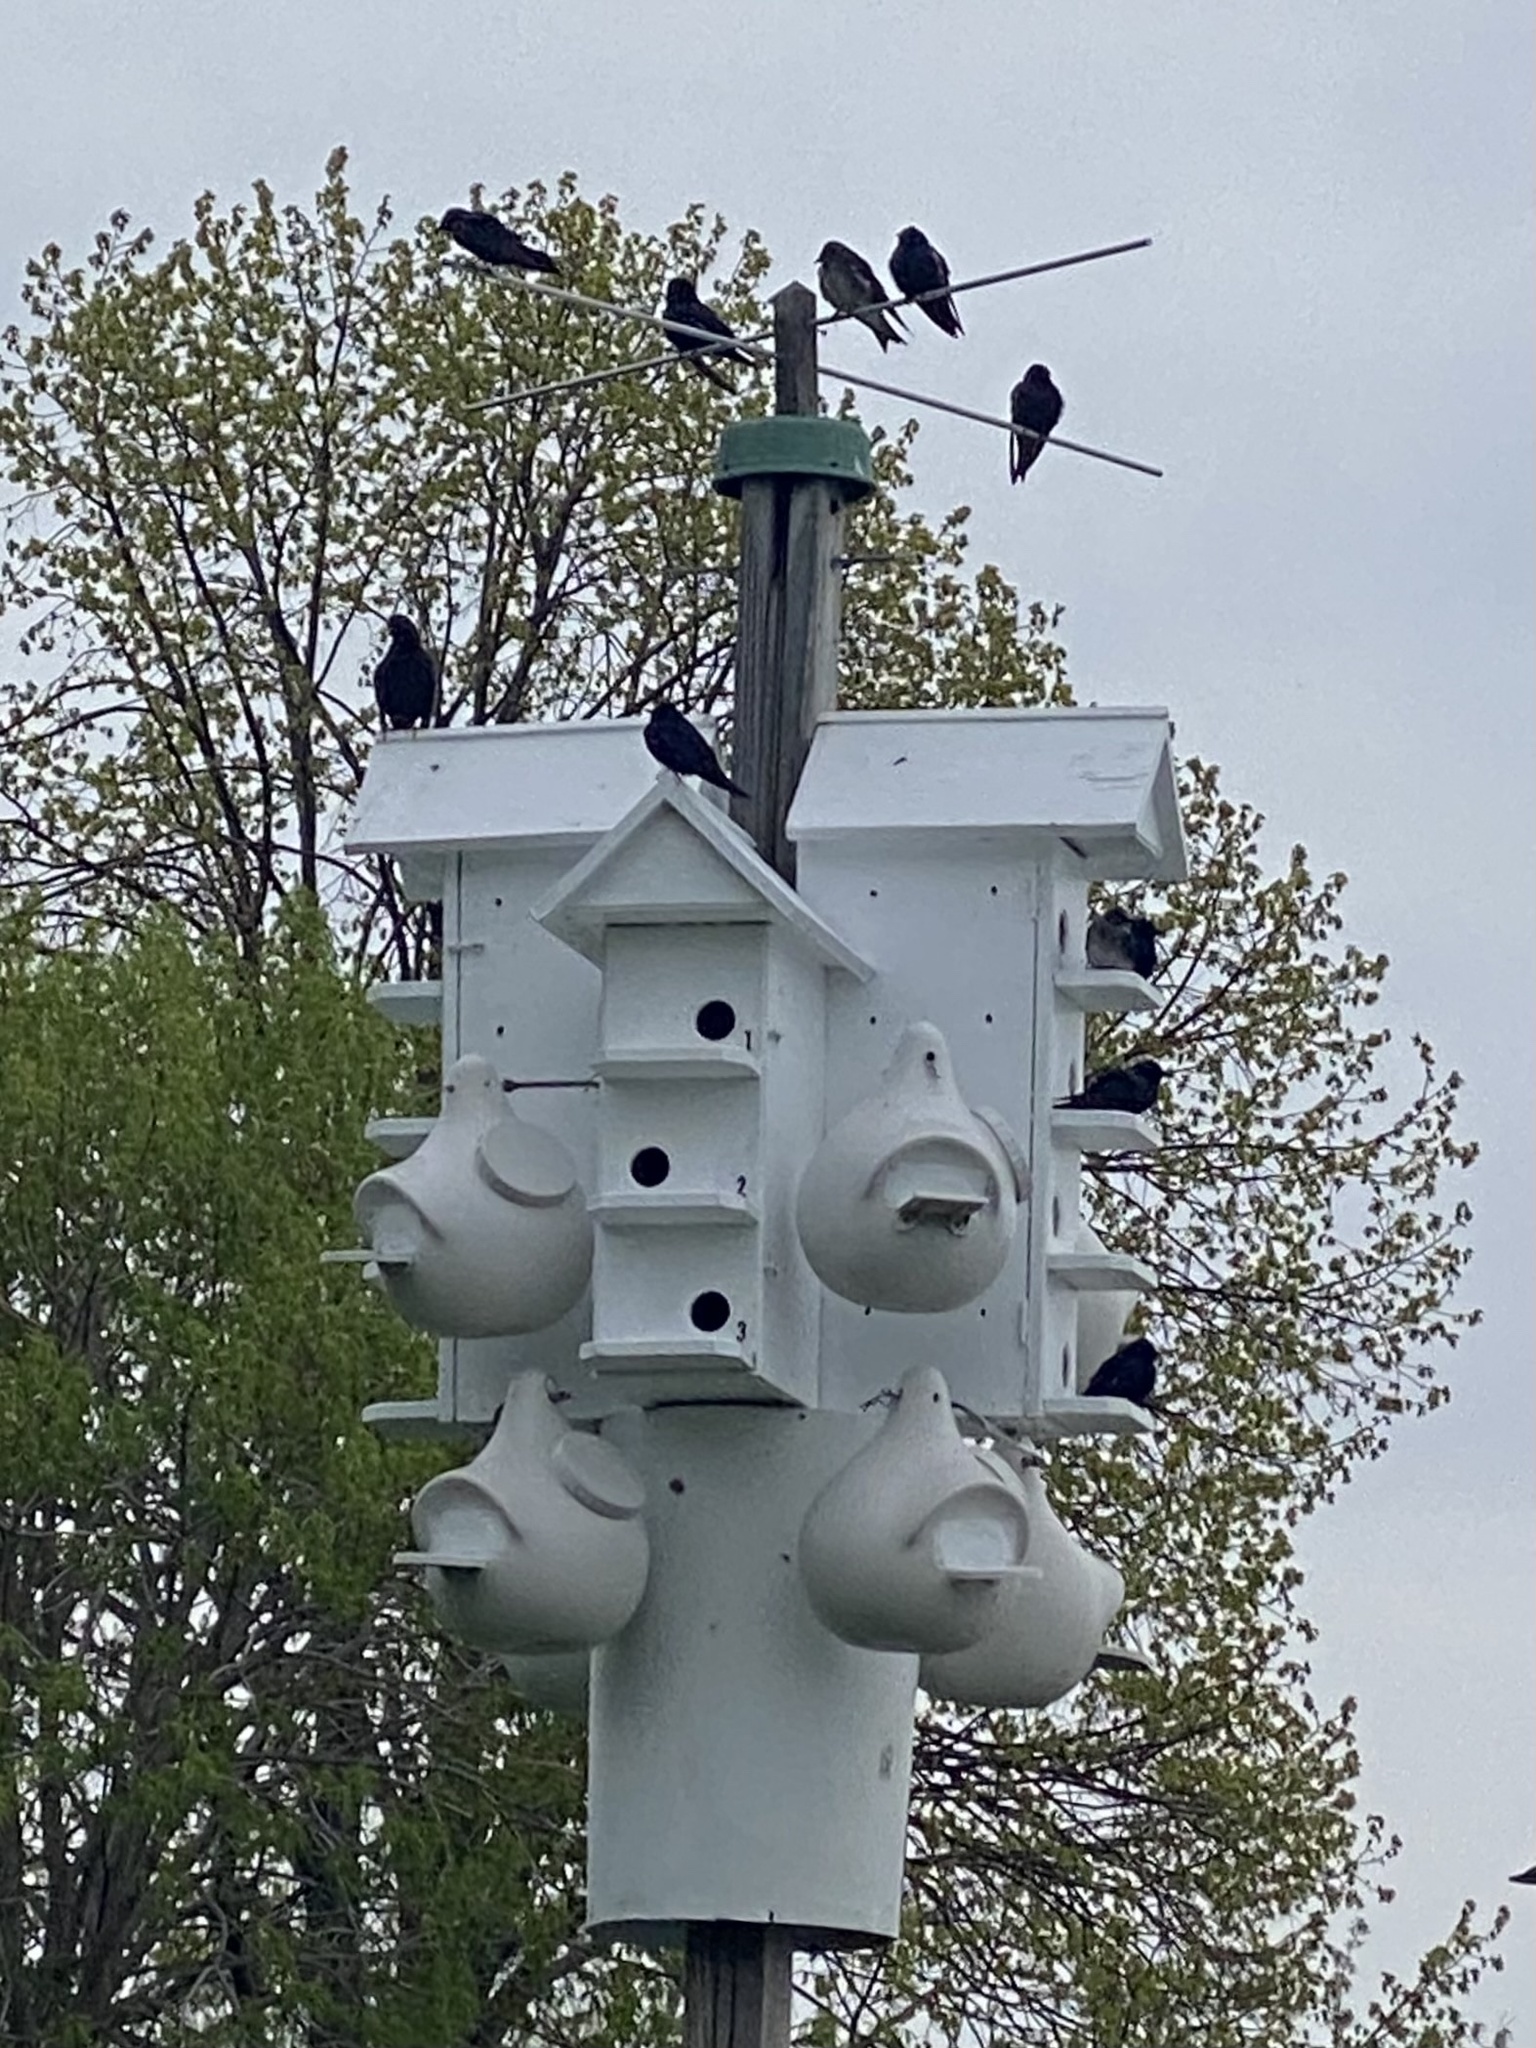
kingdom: Animalia
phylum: Chordata
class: Aves
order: Passeriformes
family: Hirundinidae
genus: Progne
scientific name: Progne subis
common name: Purple martin
